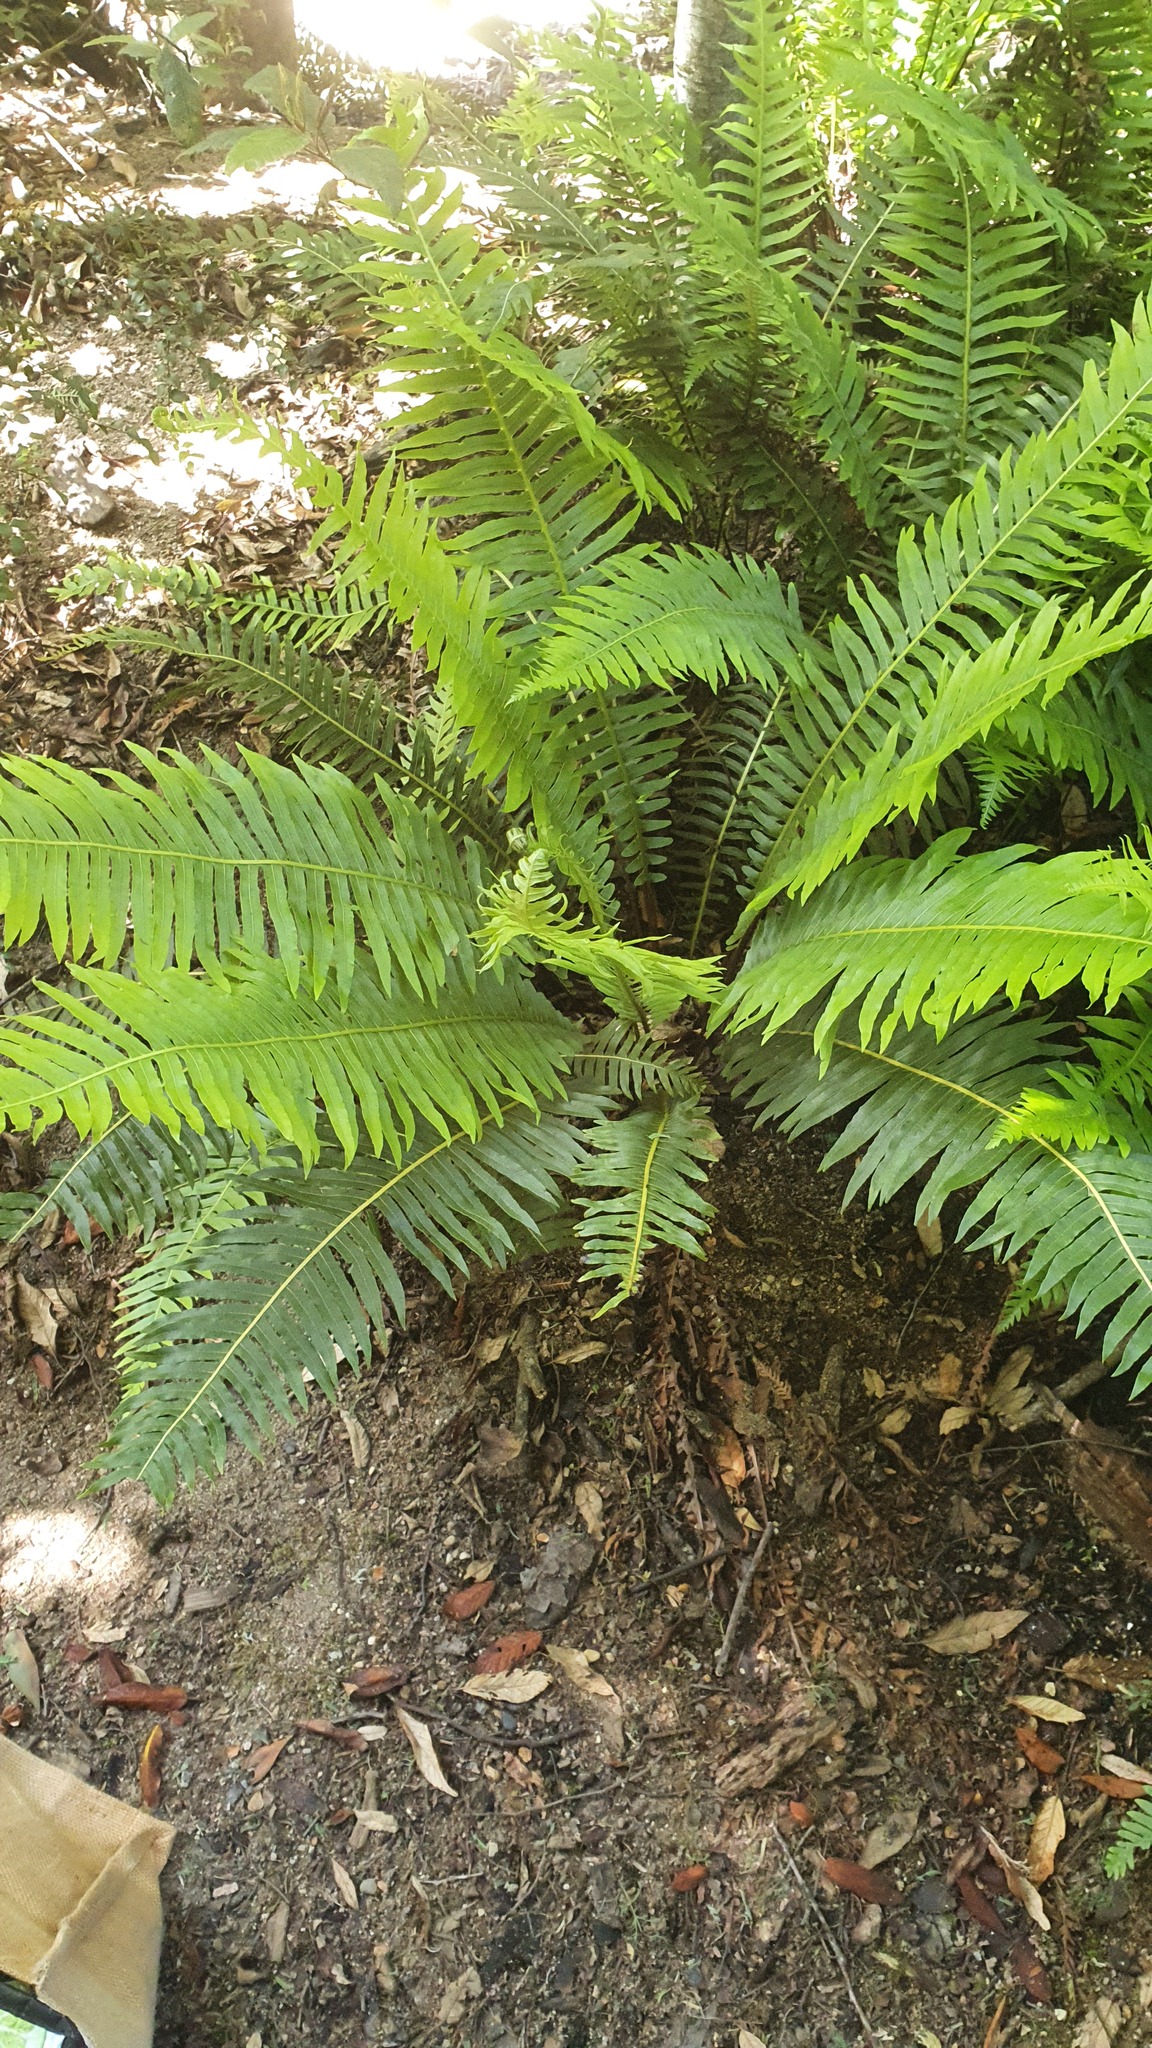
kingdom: Plantae
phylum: Tracheophyta
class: Polypodiopsida
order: Polypodiales
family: Blechnaceae
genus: Lomaria
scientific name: Lomaria nuda
